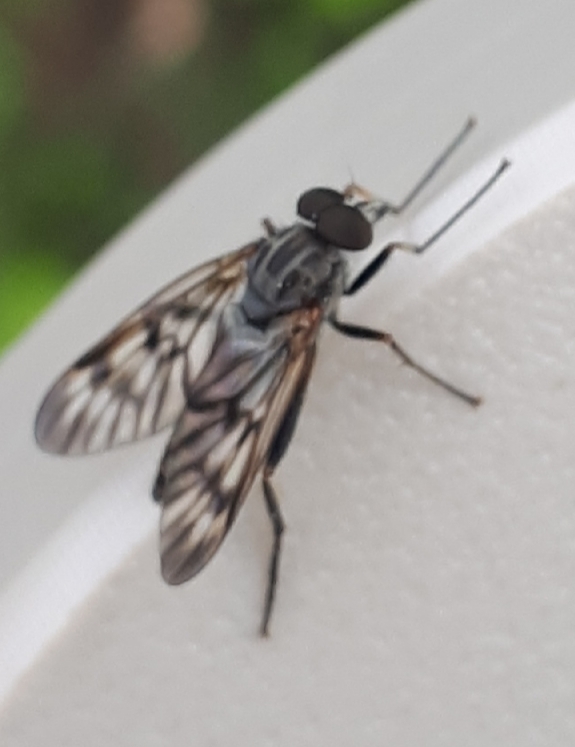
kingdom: Animalia
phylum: Arthropoda
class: Insecta
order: Diptera
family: Rhagionidae
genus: Rhagio
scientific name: Rhagio mystaceus
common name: Common snipe fly
